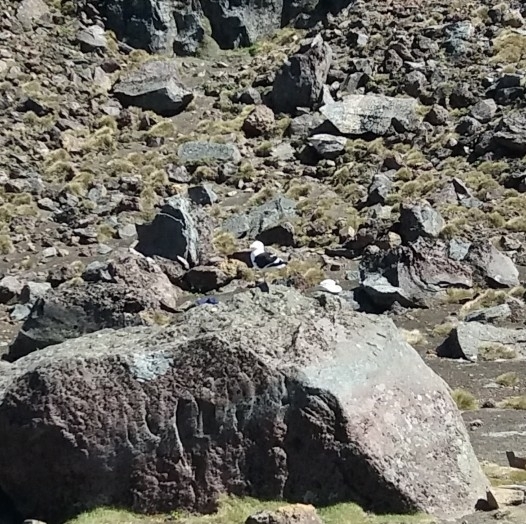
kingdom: Animalia
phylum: Chordata
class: Aves
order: Charadriiformes
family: Laridae
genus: Larus
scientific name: Larus dominicanus
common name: Kelp gull
